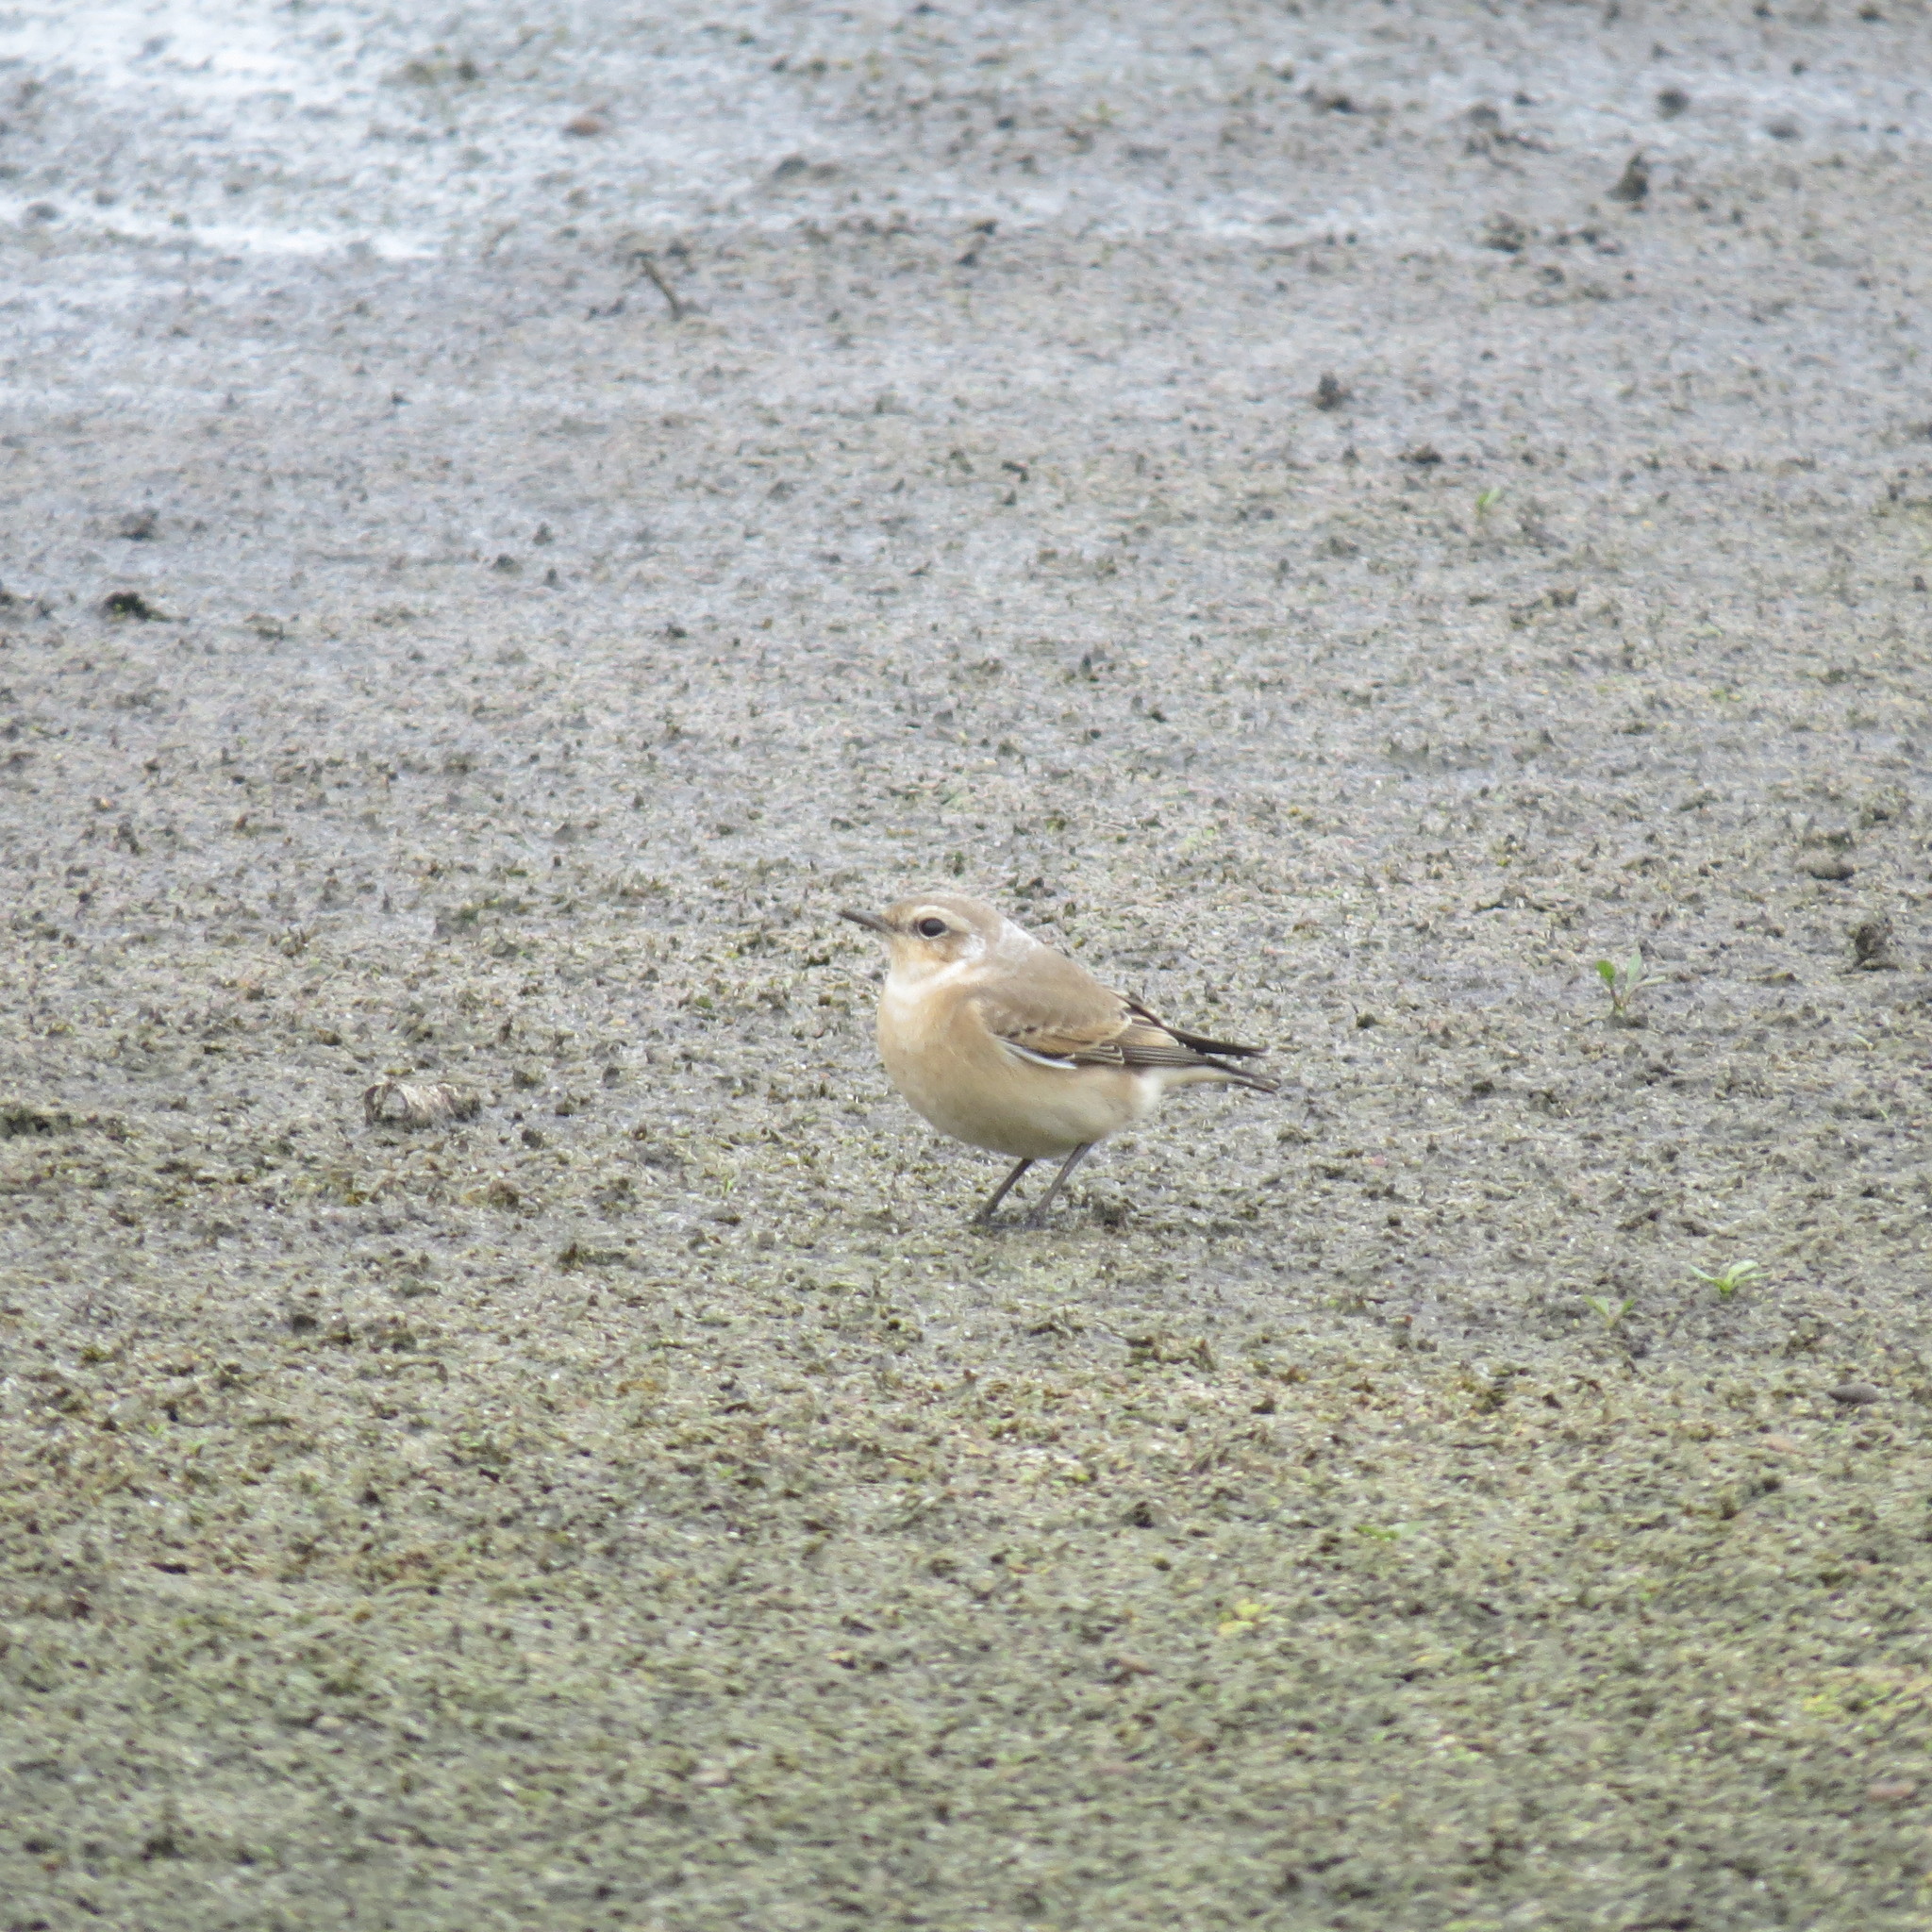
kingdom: Animalia
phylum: Chordata
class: Aves
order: Passeriformes
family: Muscicapidae
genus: Oenanthe
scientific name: Oenanthe oenanthe
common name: Northern wheatear
